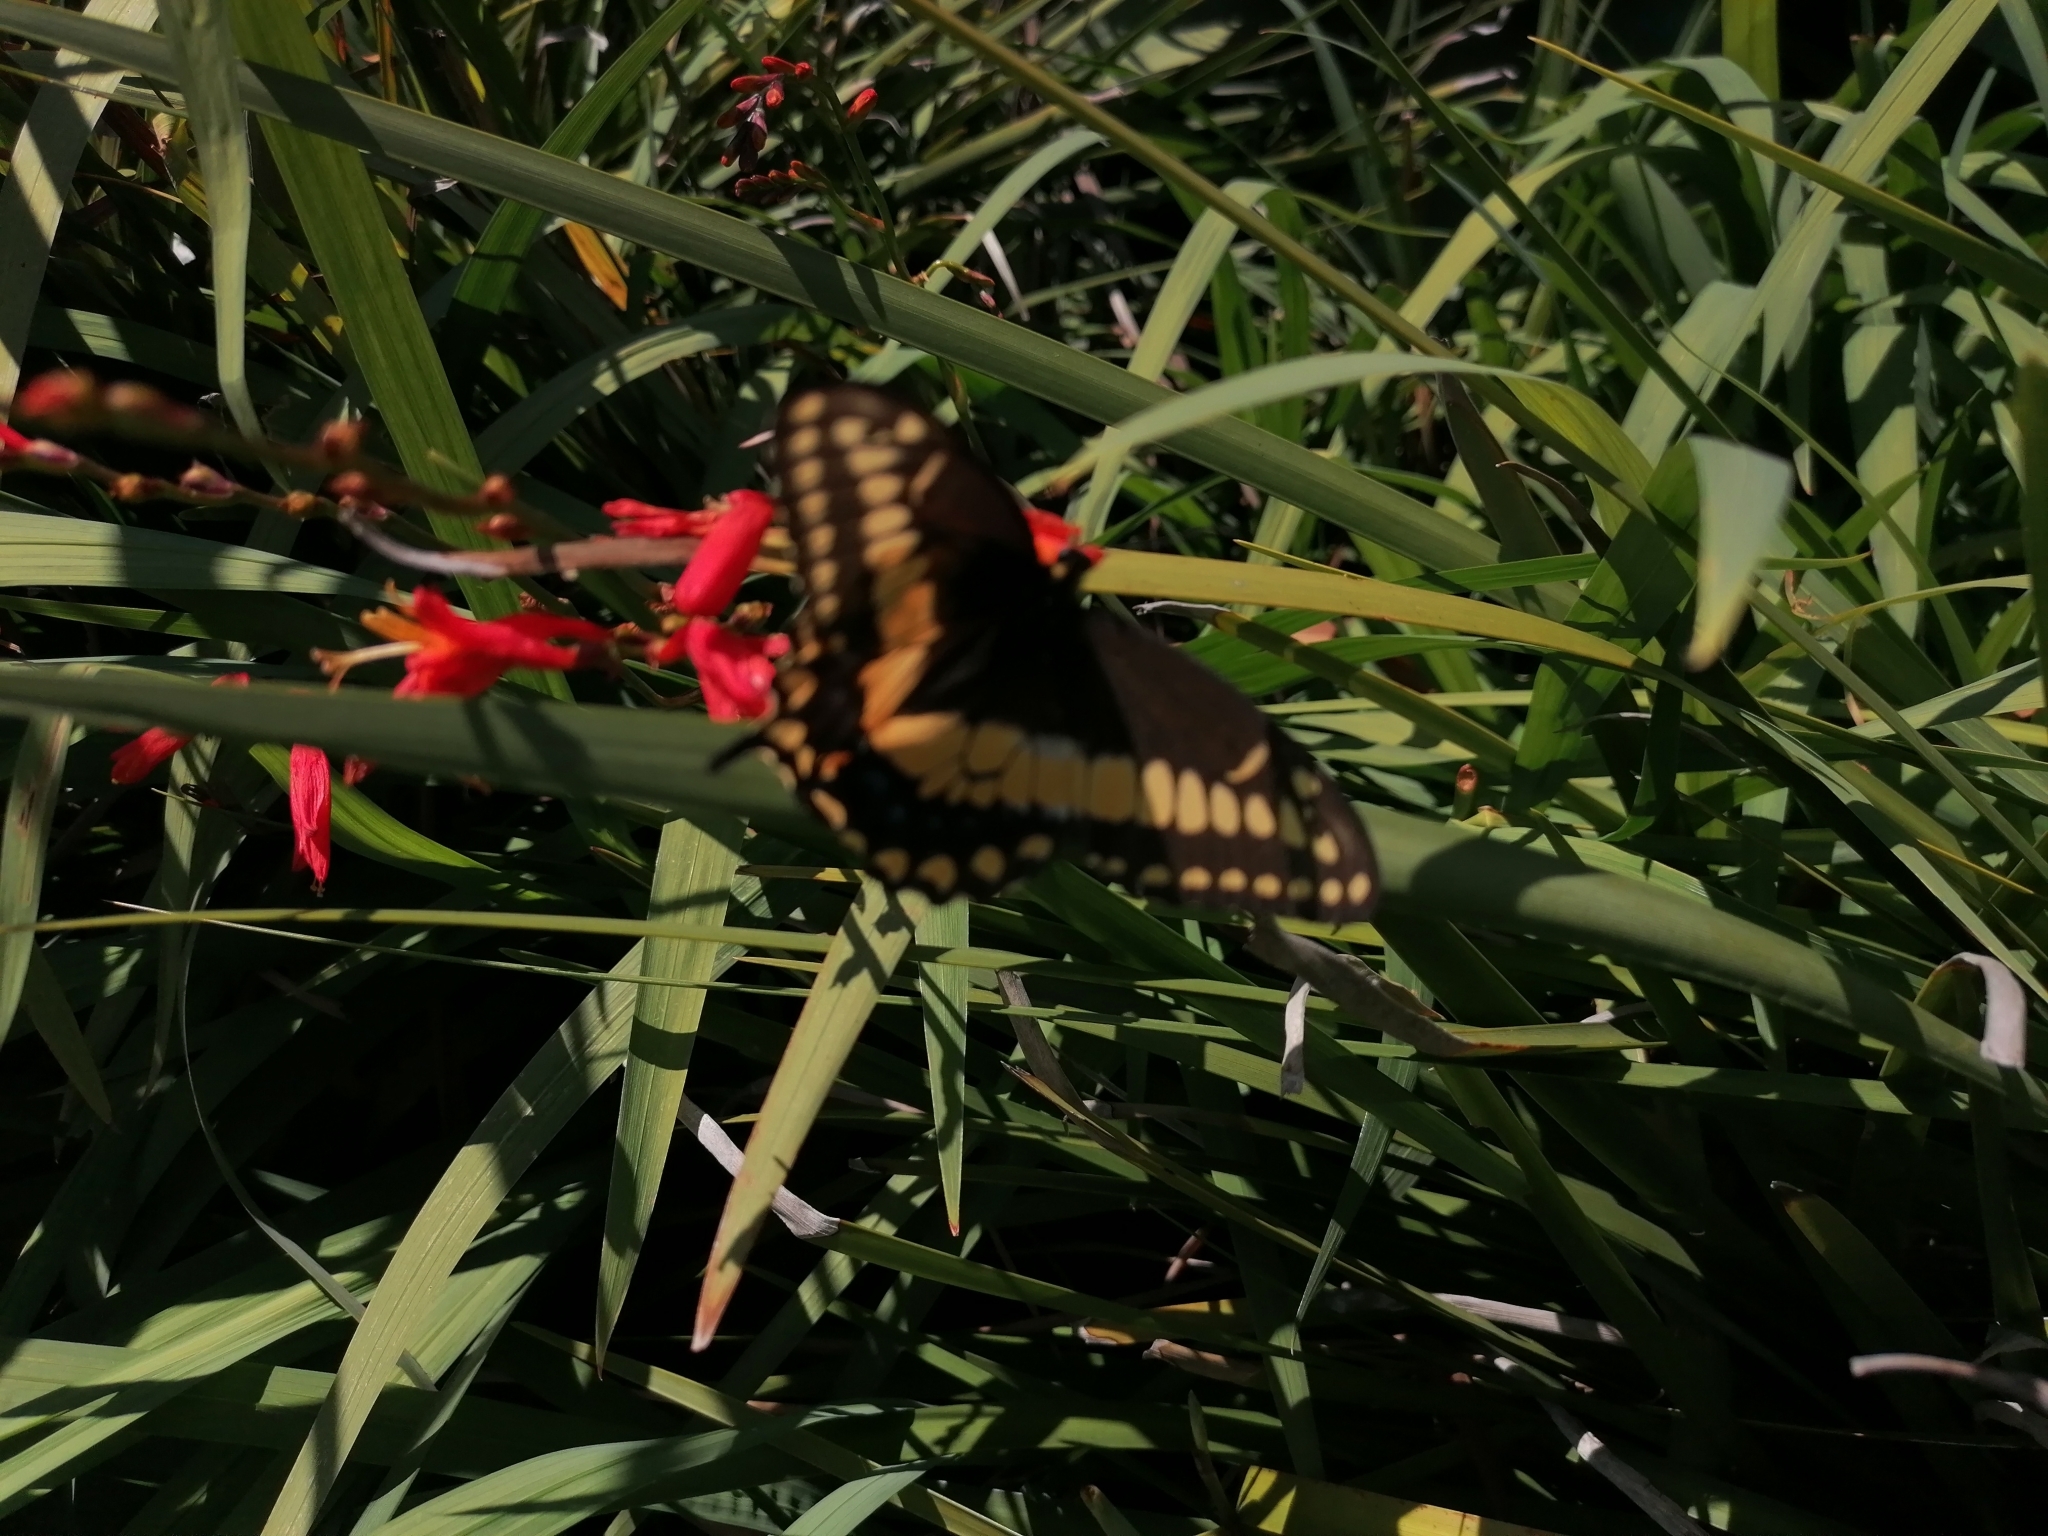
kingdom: Animalia
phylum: Arthropoda
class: Insecta
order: Lepidoptera
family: Papilionidae
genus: Papilio
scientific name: Papilio polyxenes
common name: Black swallowtail
